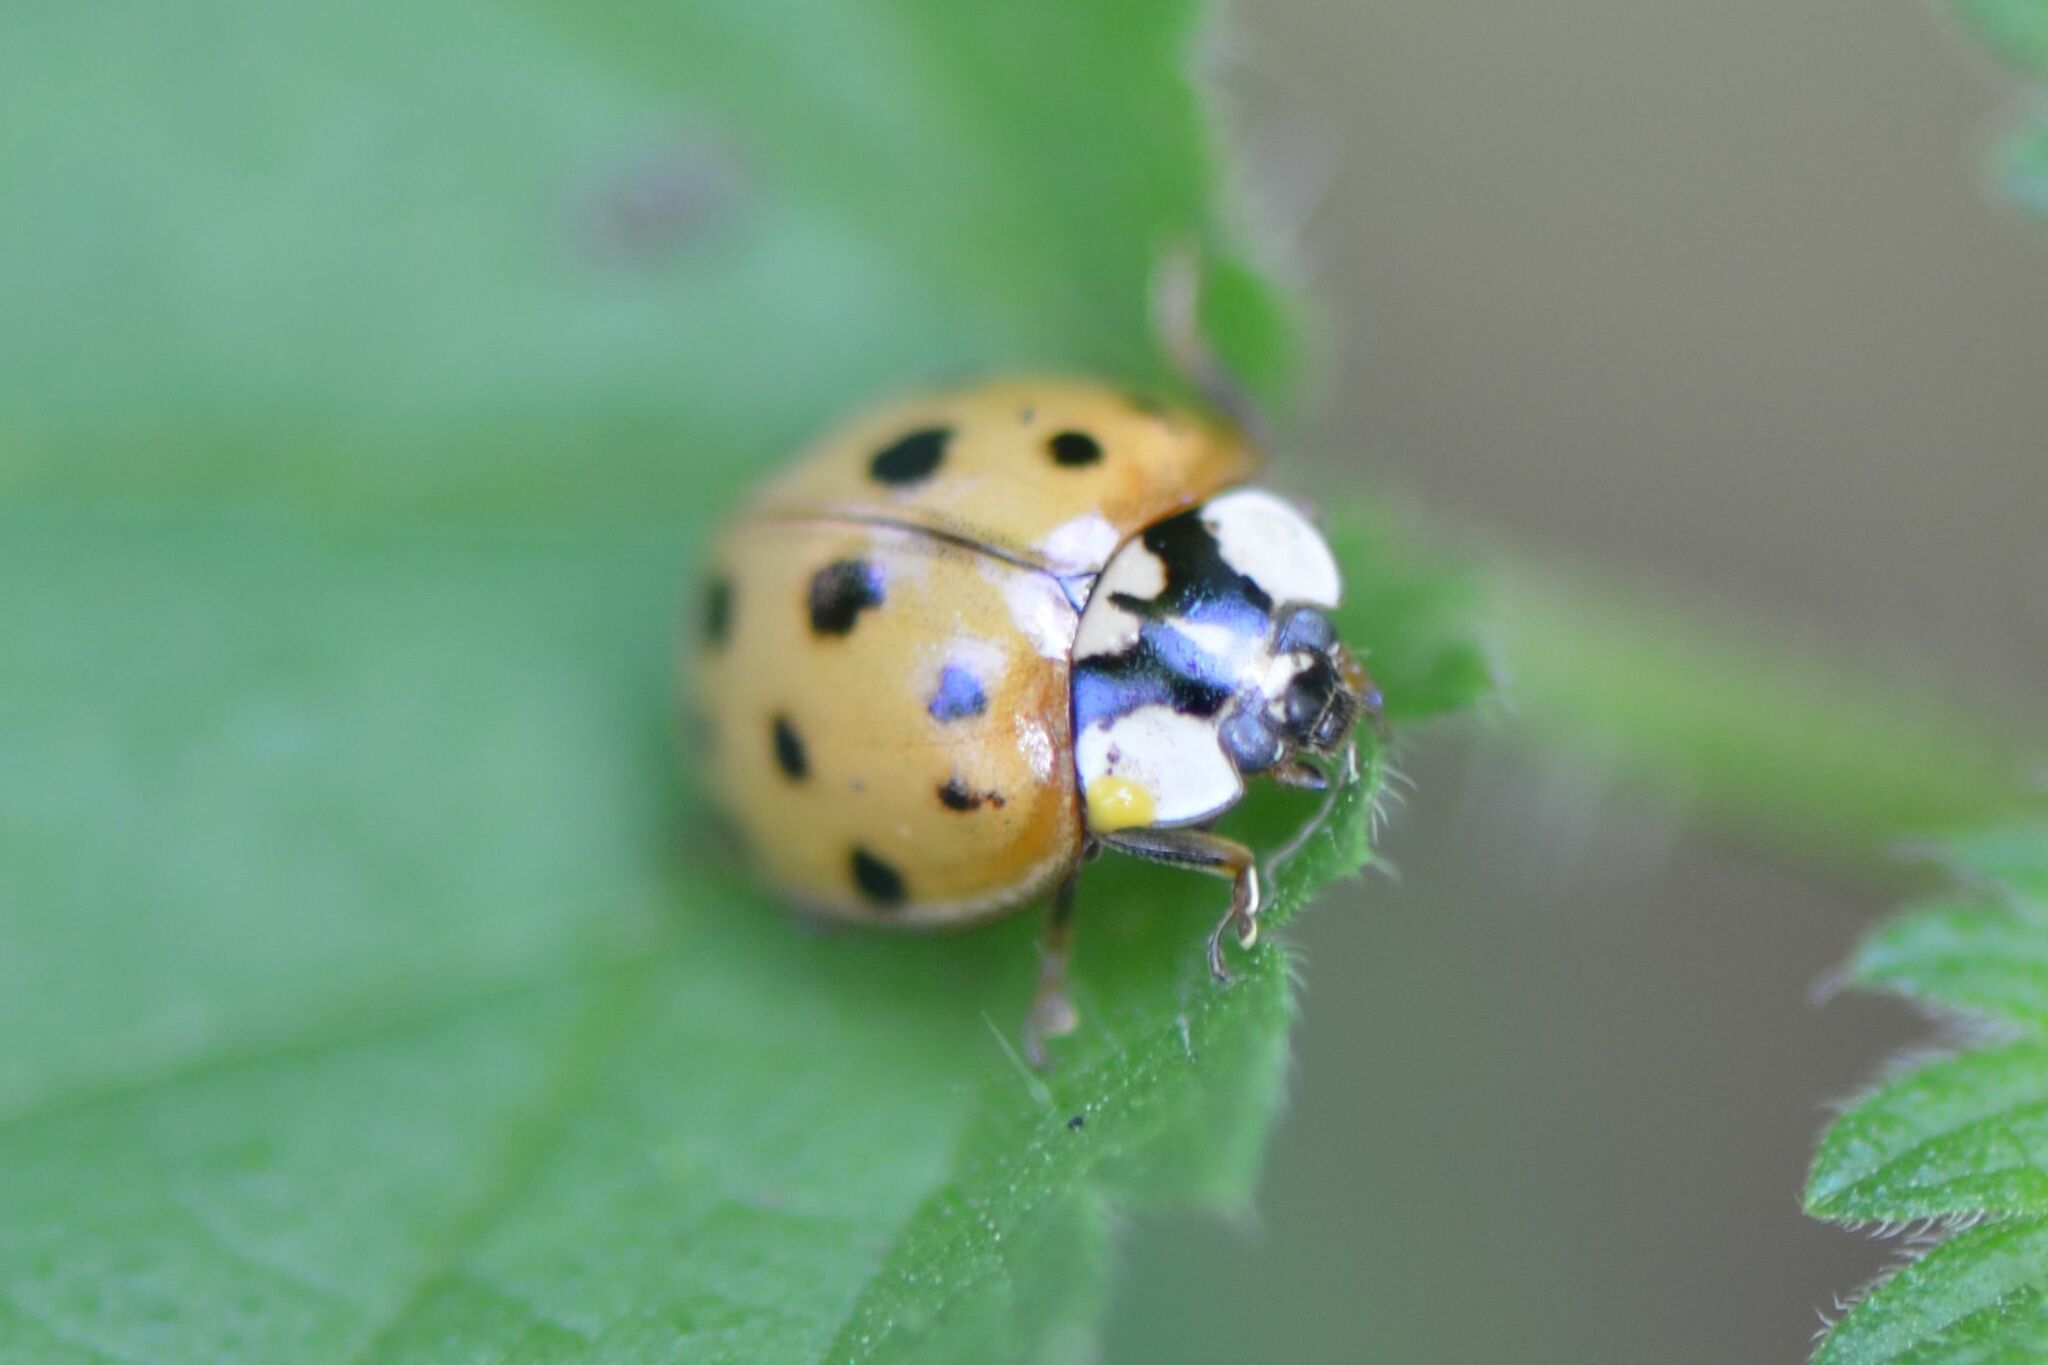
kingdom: Animalia
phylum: Arthropoda
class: Insecta
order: Coleoptera
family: Coccinellidae
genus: Harmonia
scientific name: Harmonia axyridis
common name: Harlequin ladybird
